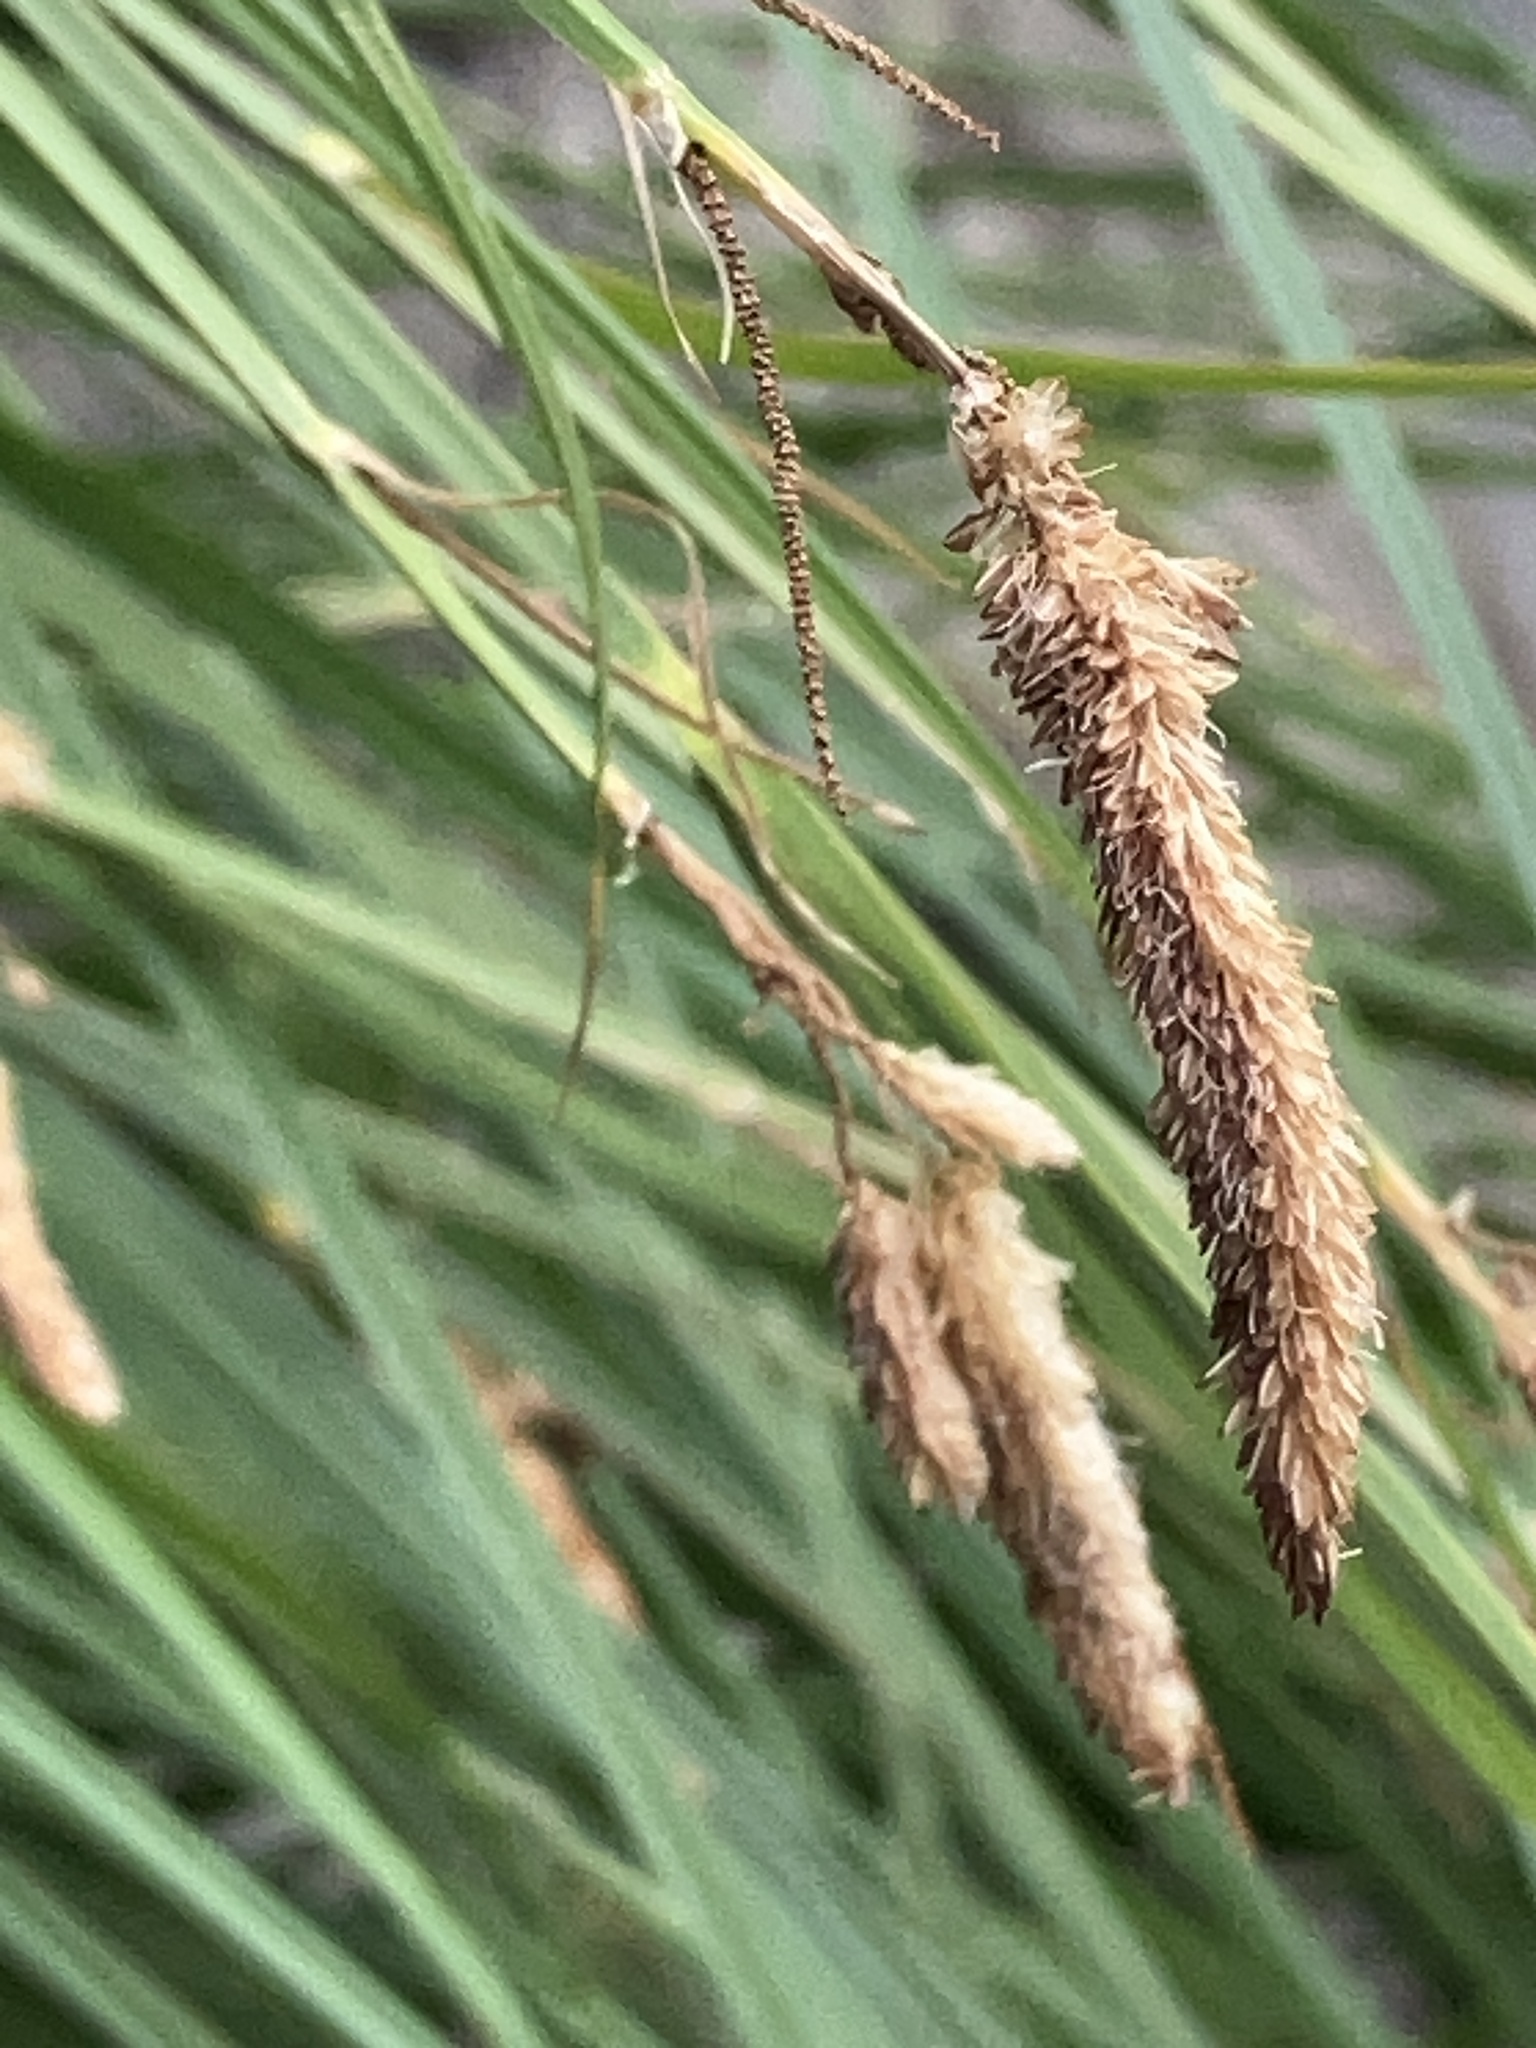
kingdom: Plantae
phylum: Tracheophyta
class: Liliopsida
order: Poales
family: Cyperaceae
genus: Carex
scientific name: Carex nudata
